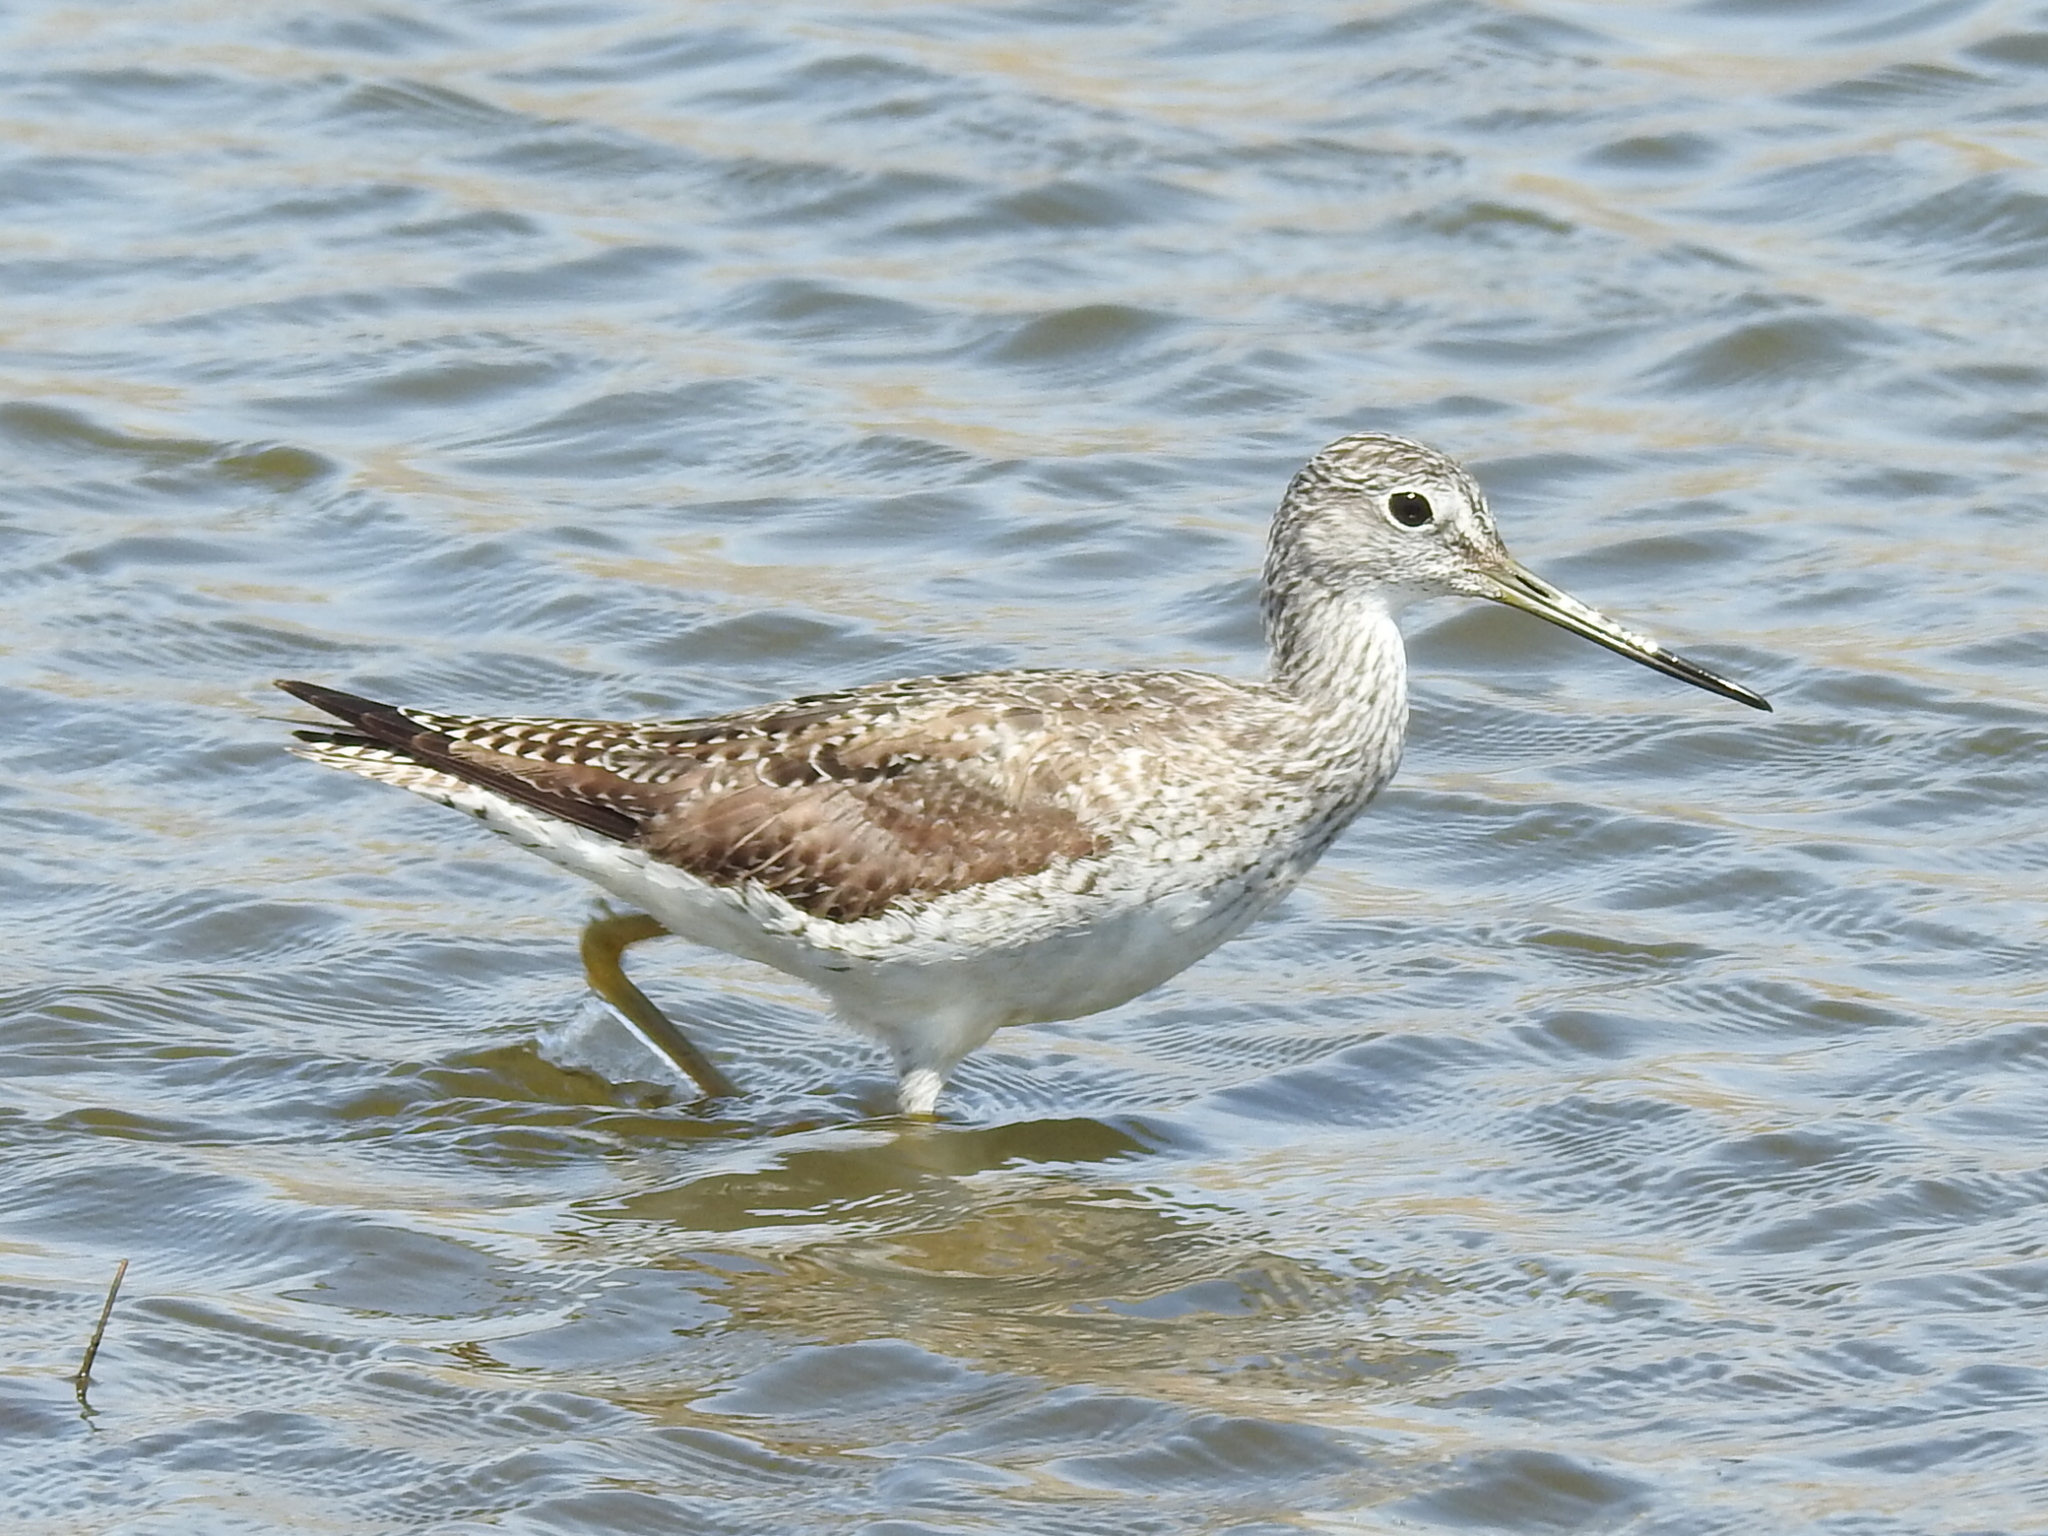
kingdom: Animalia
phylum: Chordata
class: Aves
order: Charadriiformes
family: Scolopacidae
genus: Tringa
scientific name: Tringa melanoleuca
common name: Greater yellowlegs
